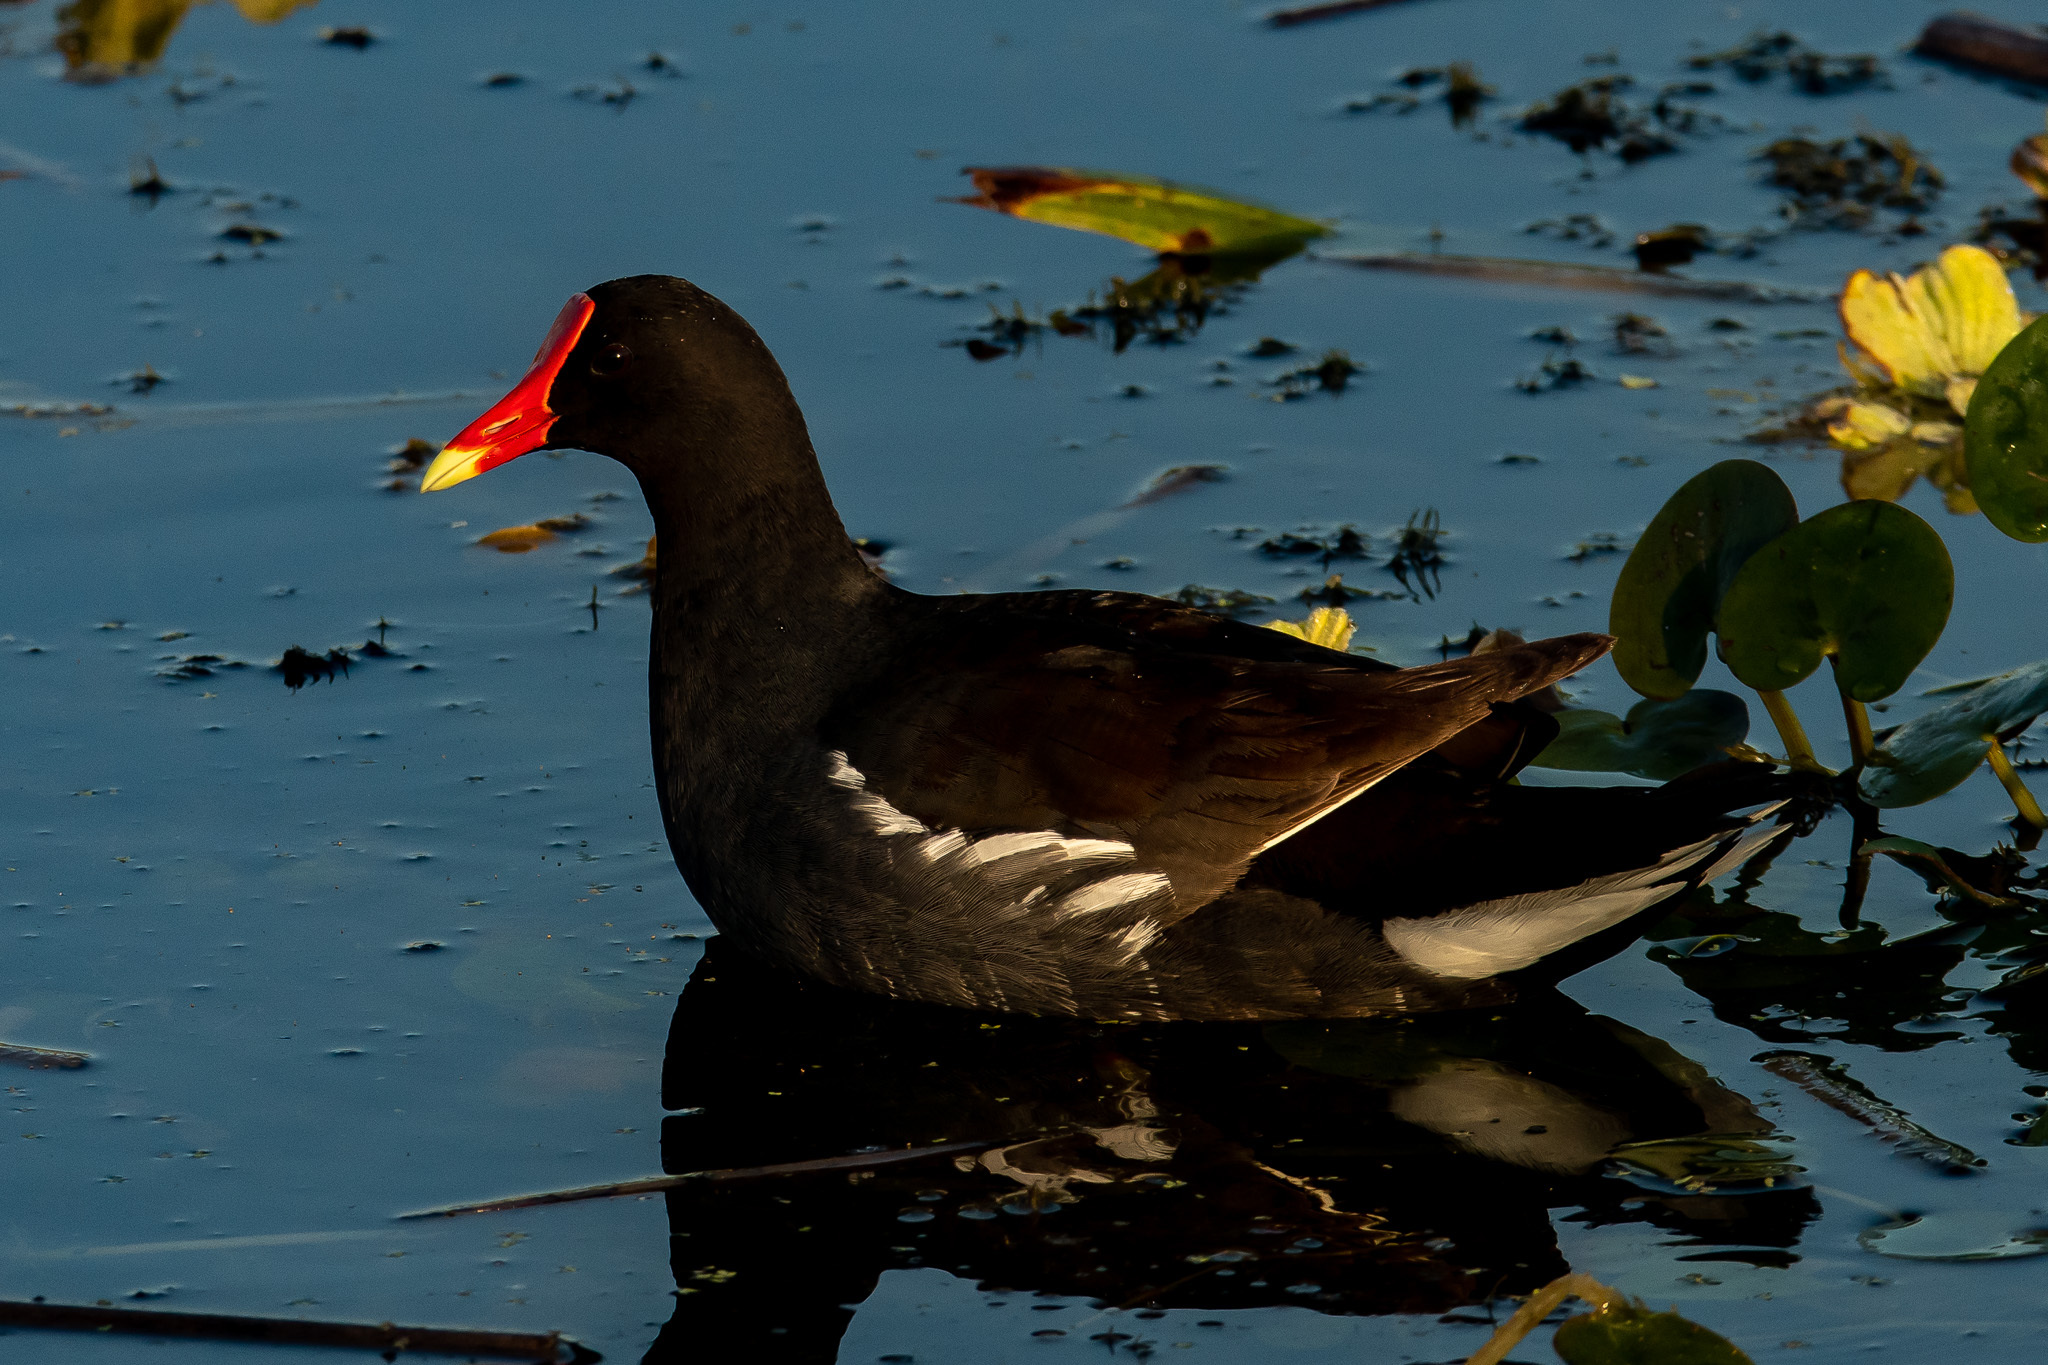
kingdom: Animalia
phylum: Chordata
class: Aves
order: Gruiformes
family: Rallidae
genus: Gallinula
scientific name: Gallinula chloropus
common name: Common moorhen
